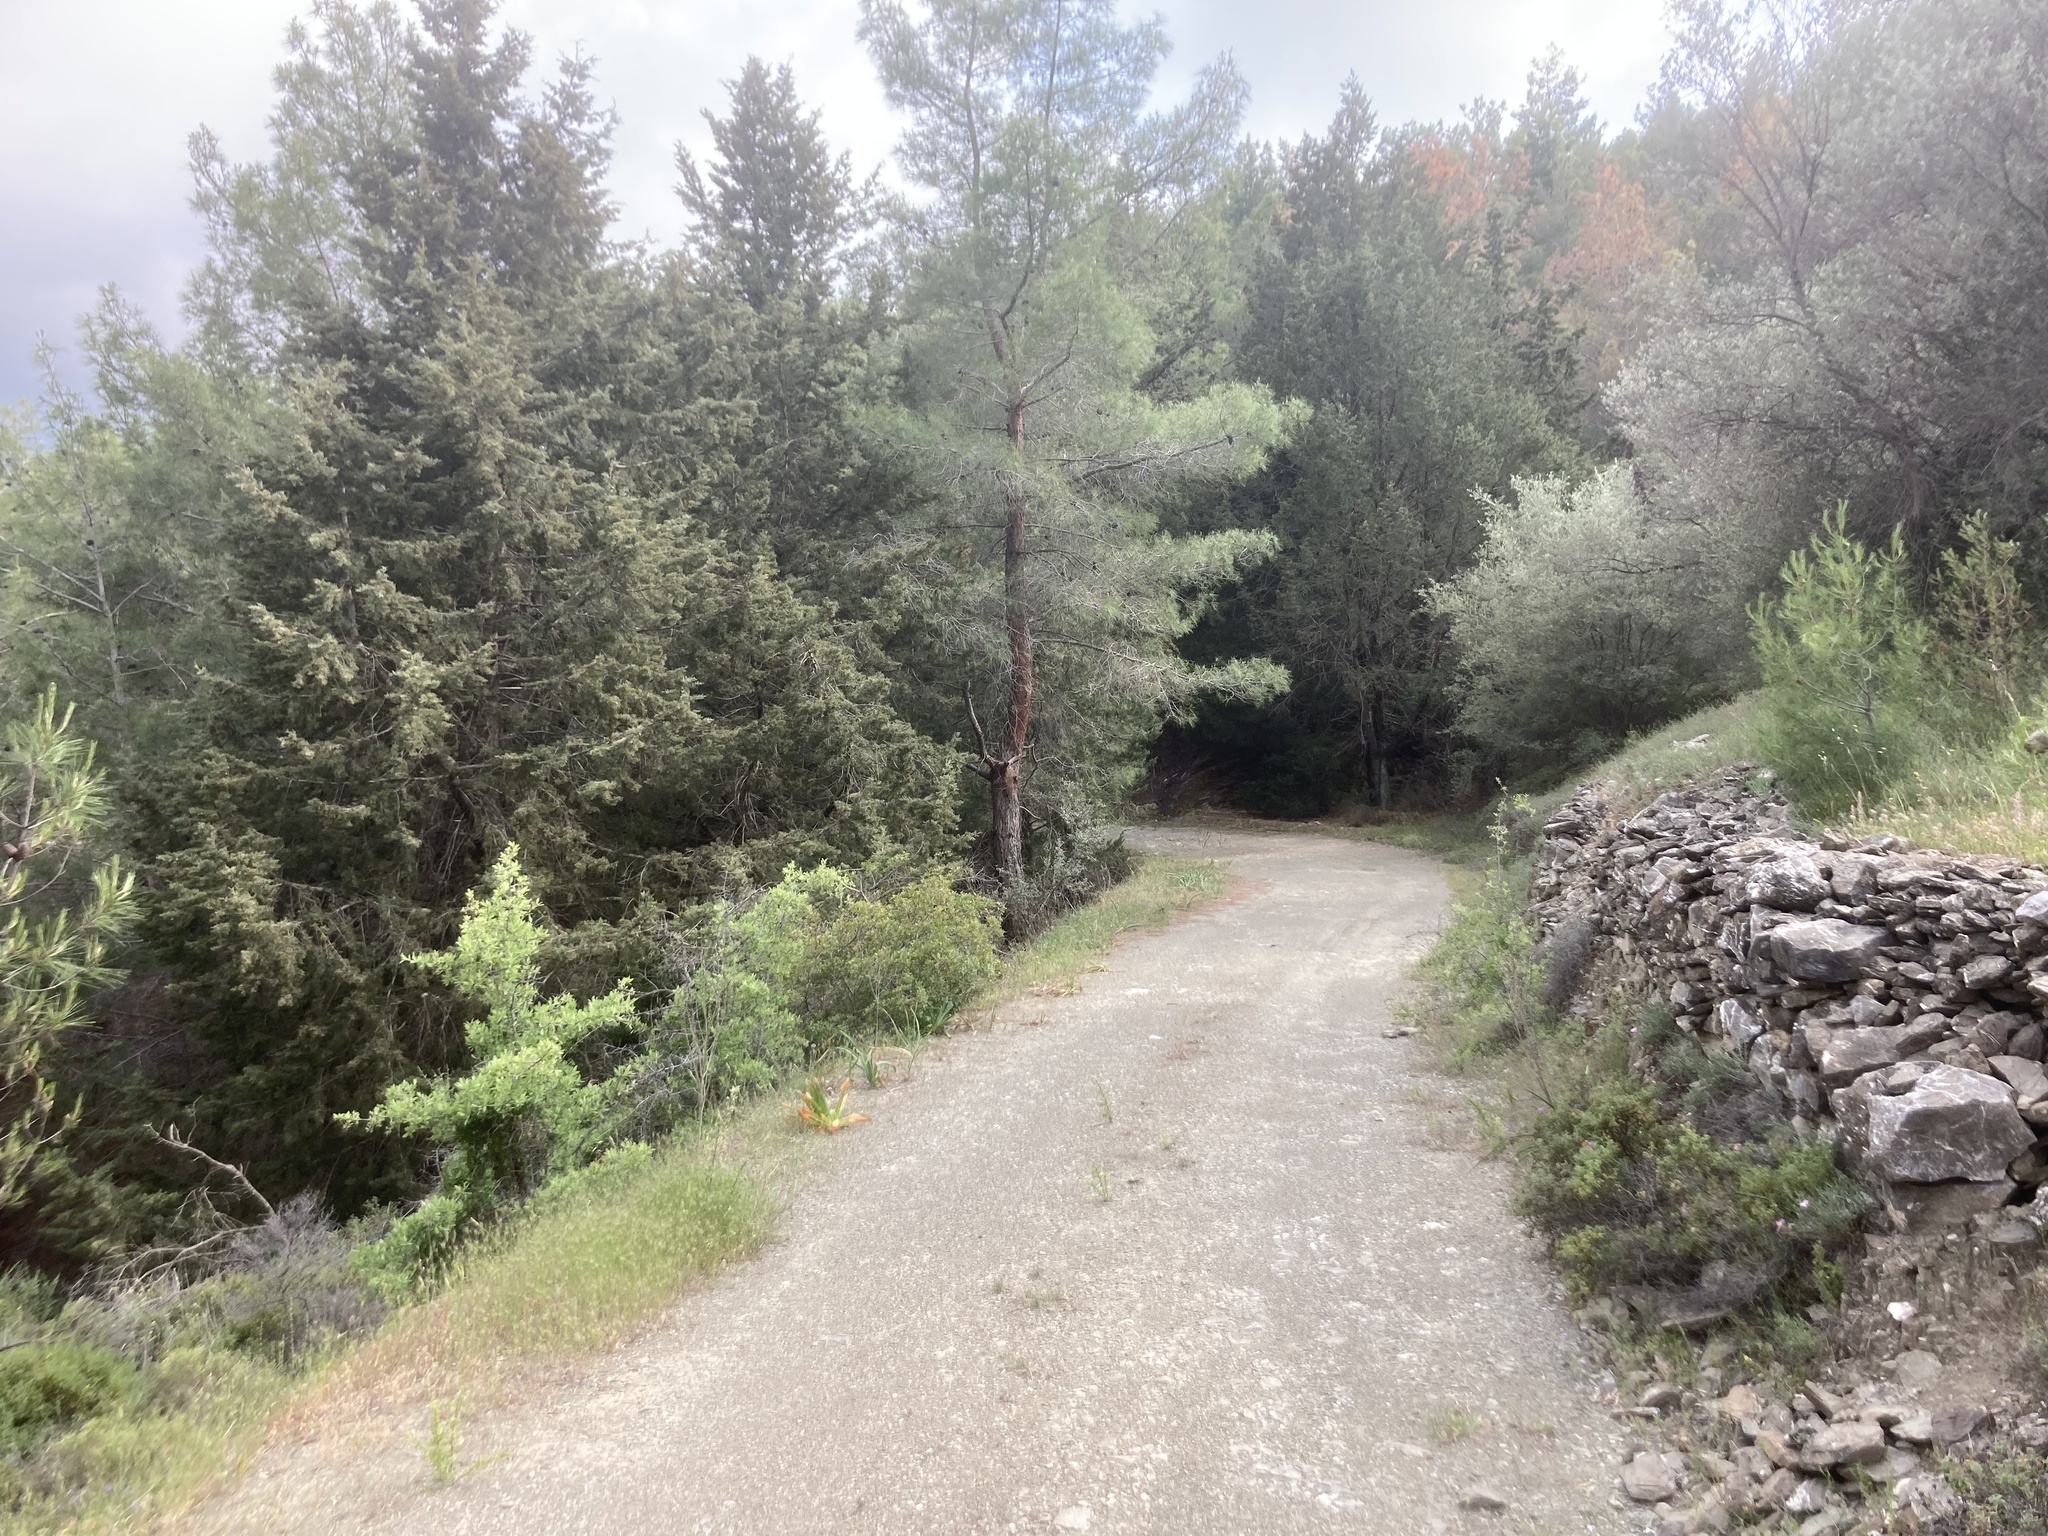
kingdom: Plantae
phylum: Tracheophyta
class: Pinopsida
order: Pinales
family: Pinaceae
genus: Pinus
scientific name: Pinus brutia
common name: Turkish pine
